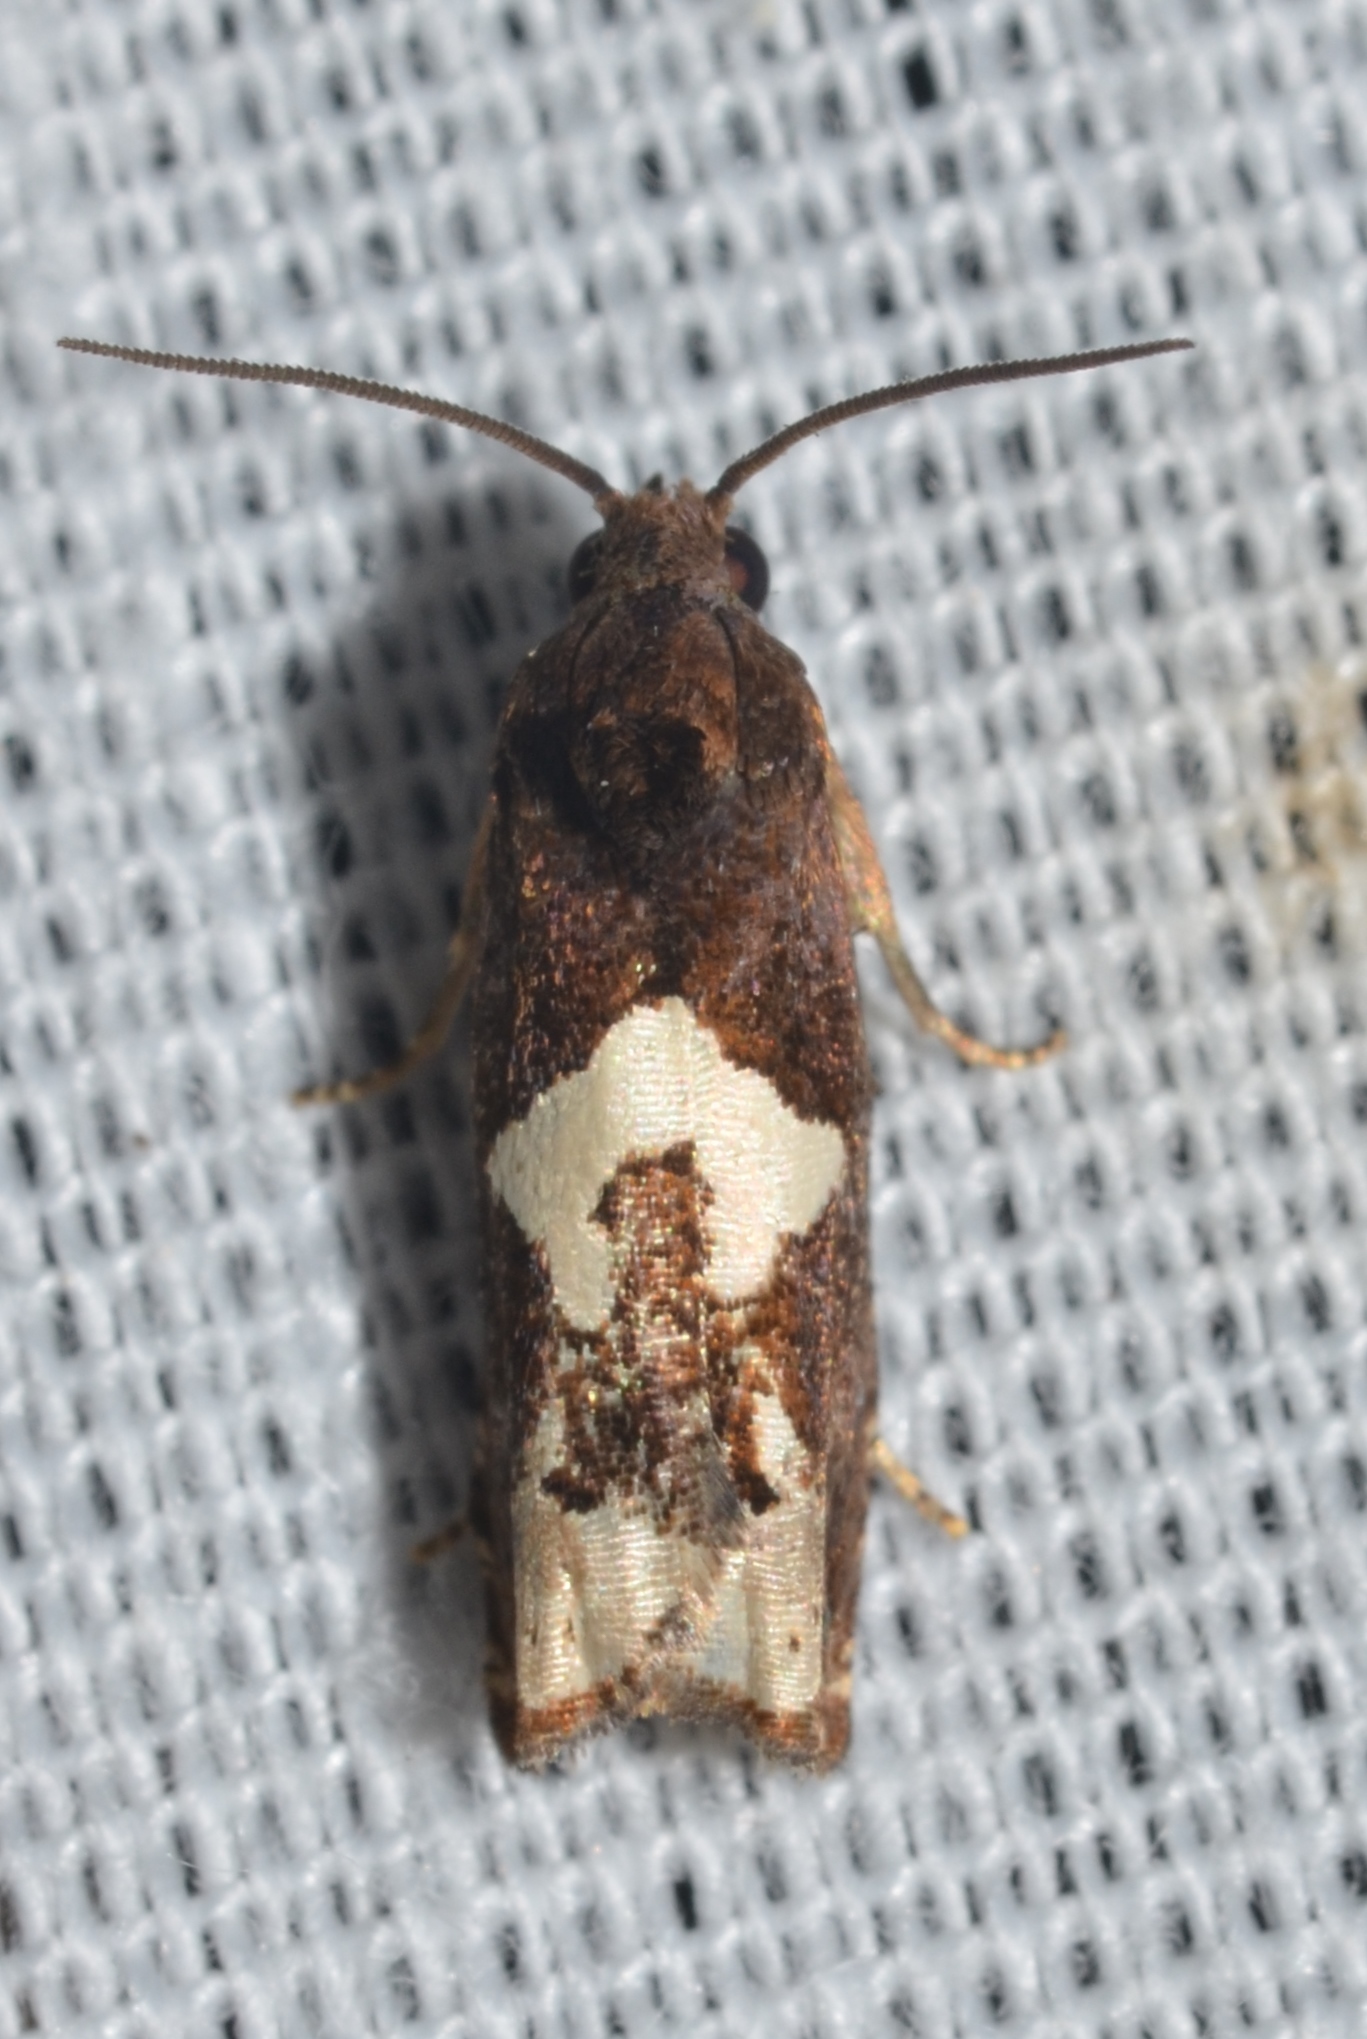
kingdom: Animalia
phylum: Arthropoda
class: Insecta
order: Lepidoptera
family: Tortricidae
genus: Epiblema
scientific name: Epiblema otiosana
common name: Bidens borer moth
